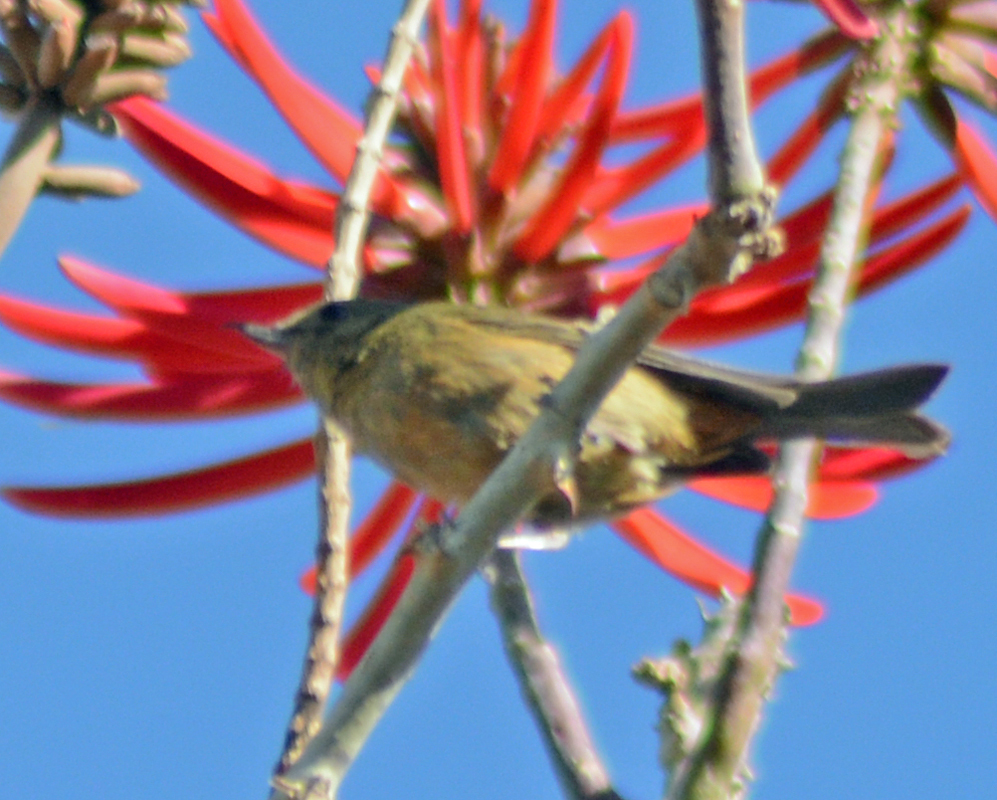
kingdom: Animalia
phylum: Chordata
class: Aves
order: Passeriformes
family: Thraupidae
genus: Diglossa
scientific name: Diglossa baritula
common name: Cinnamon-bellied flowerpiercer
